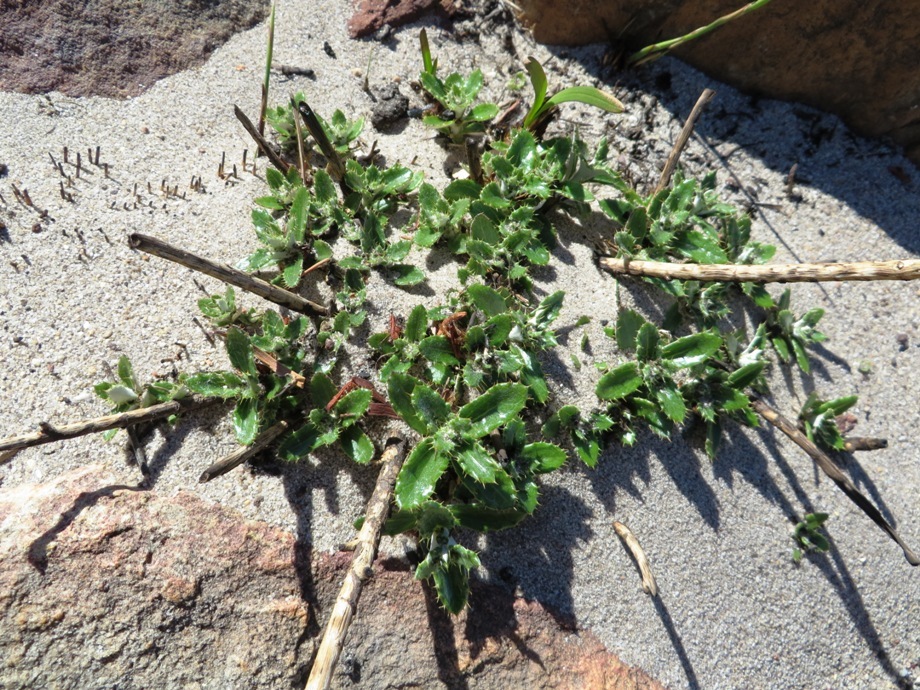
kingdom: Plantae
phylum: Tracheophyta
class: Magnoliopsida
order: Asterales
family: Asteraceae
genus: Berkheya
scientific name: Berkheya barbata
